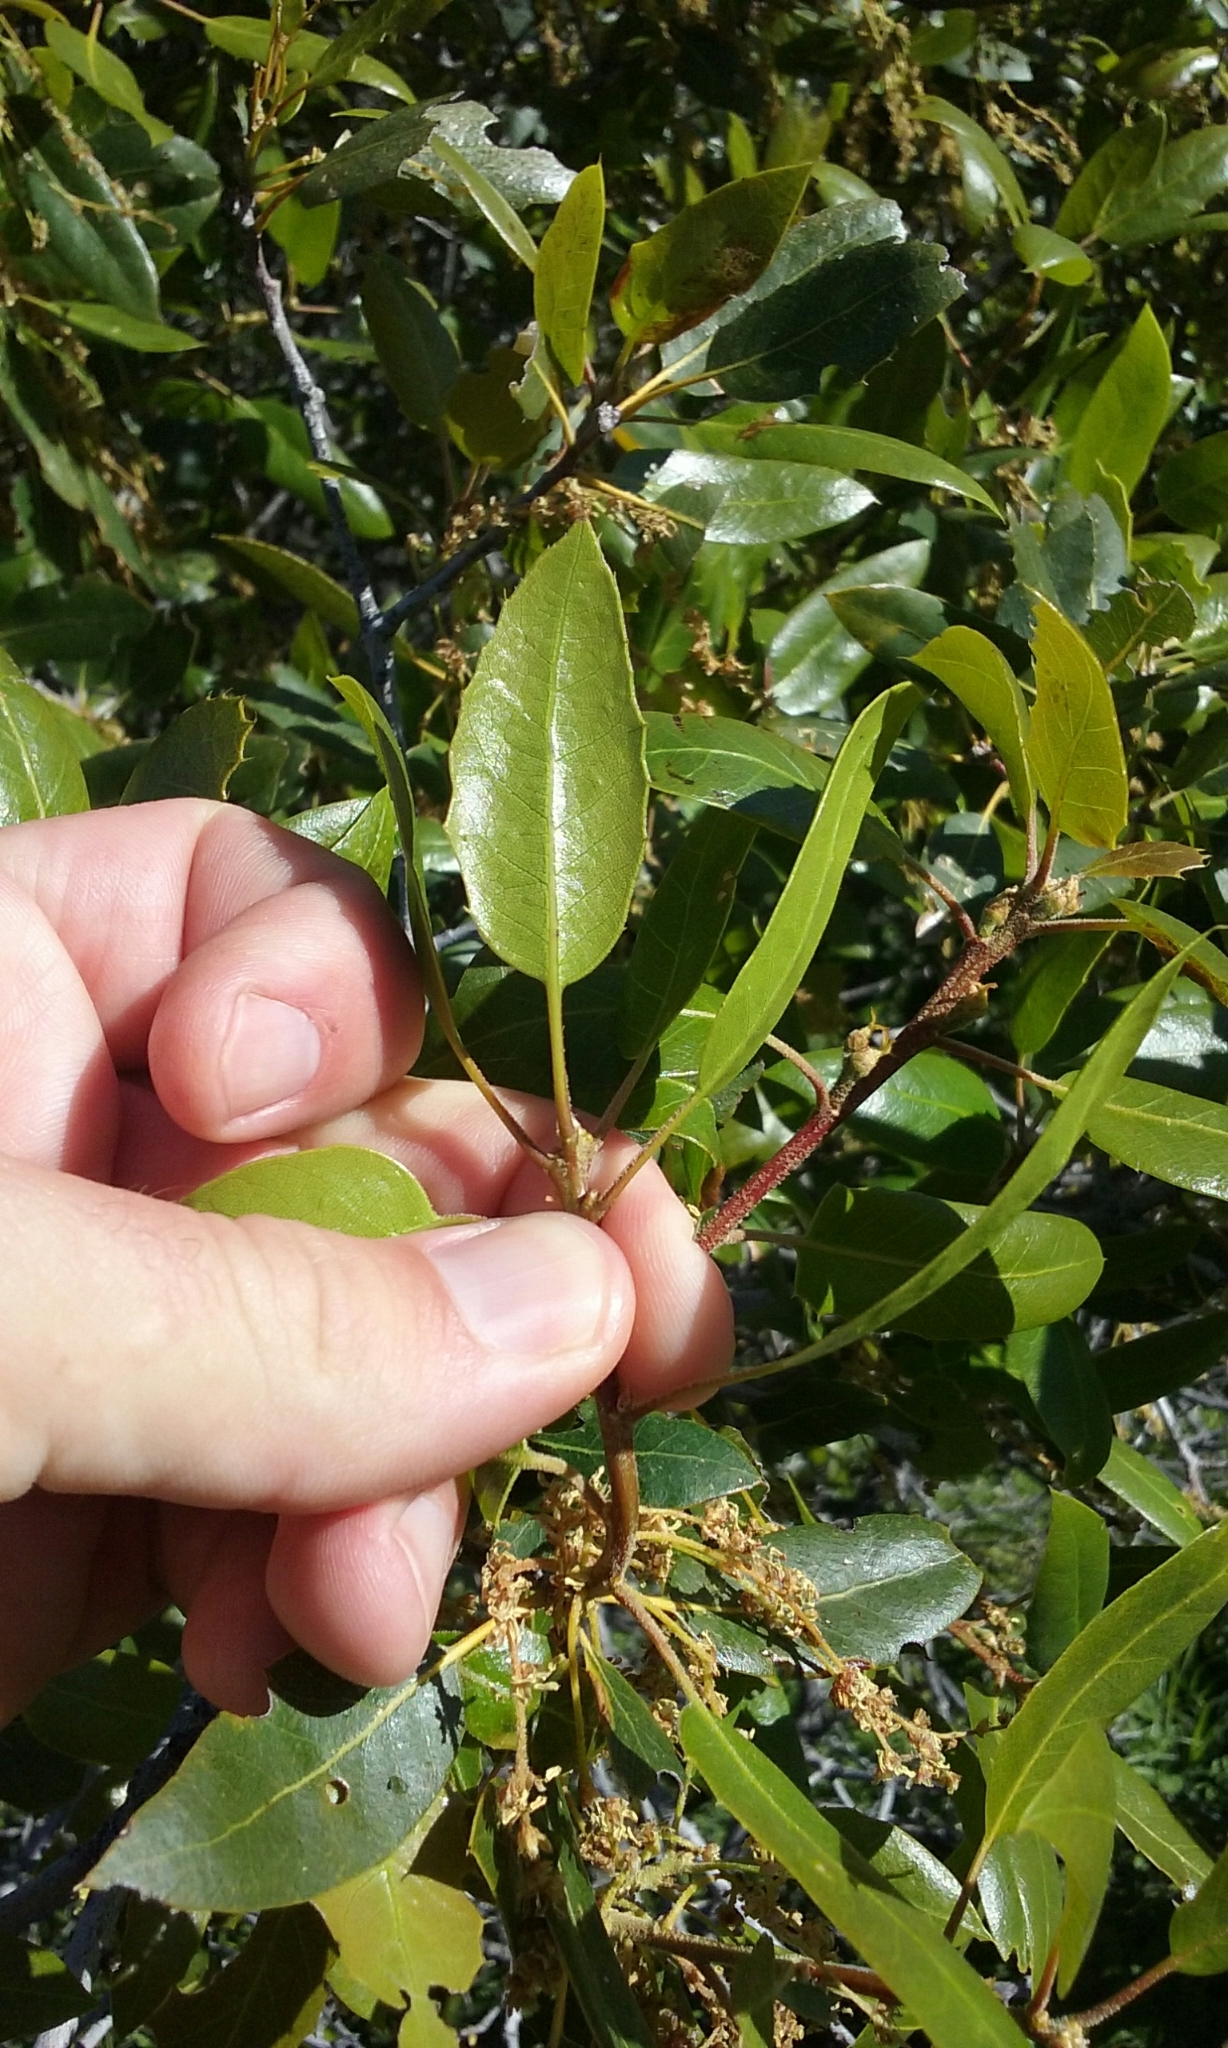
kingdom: Plantae
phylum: Tracheophyta
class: Magnoliopsida
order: Fagales
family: Fagaceae
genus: Quercus
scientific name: Quercus wislizeni
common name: Interior live oak
